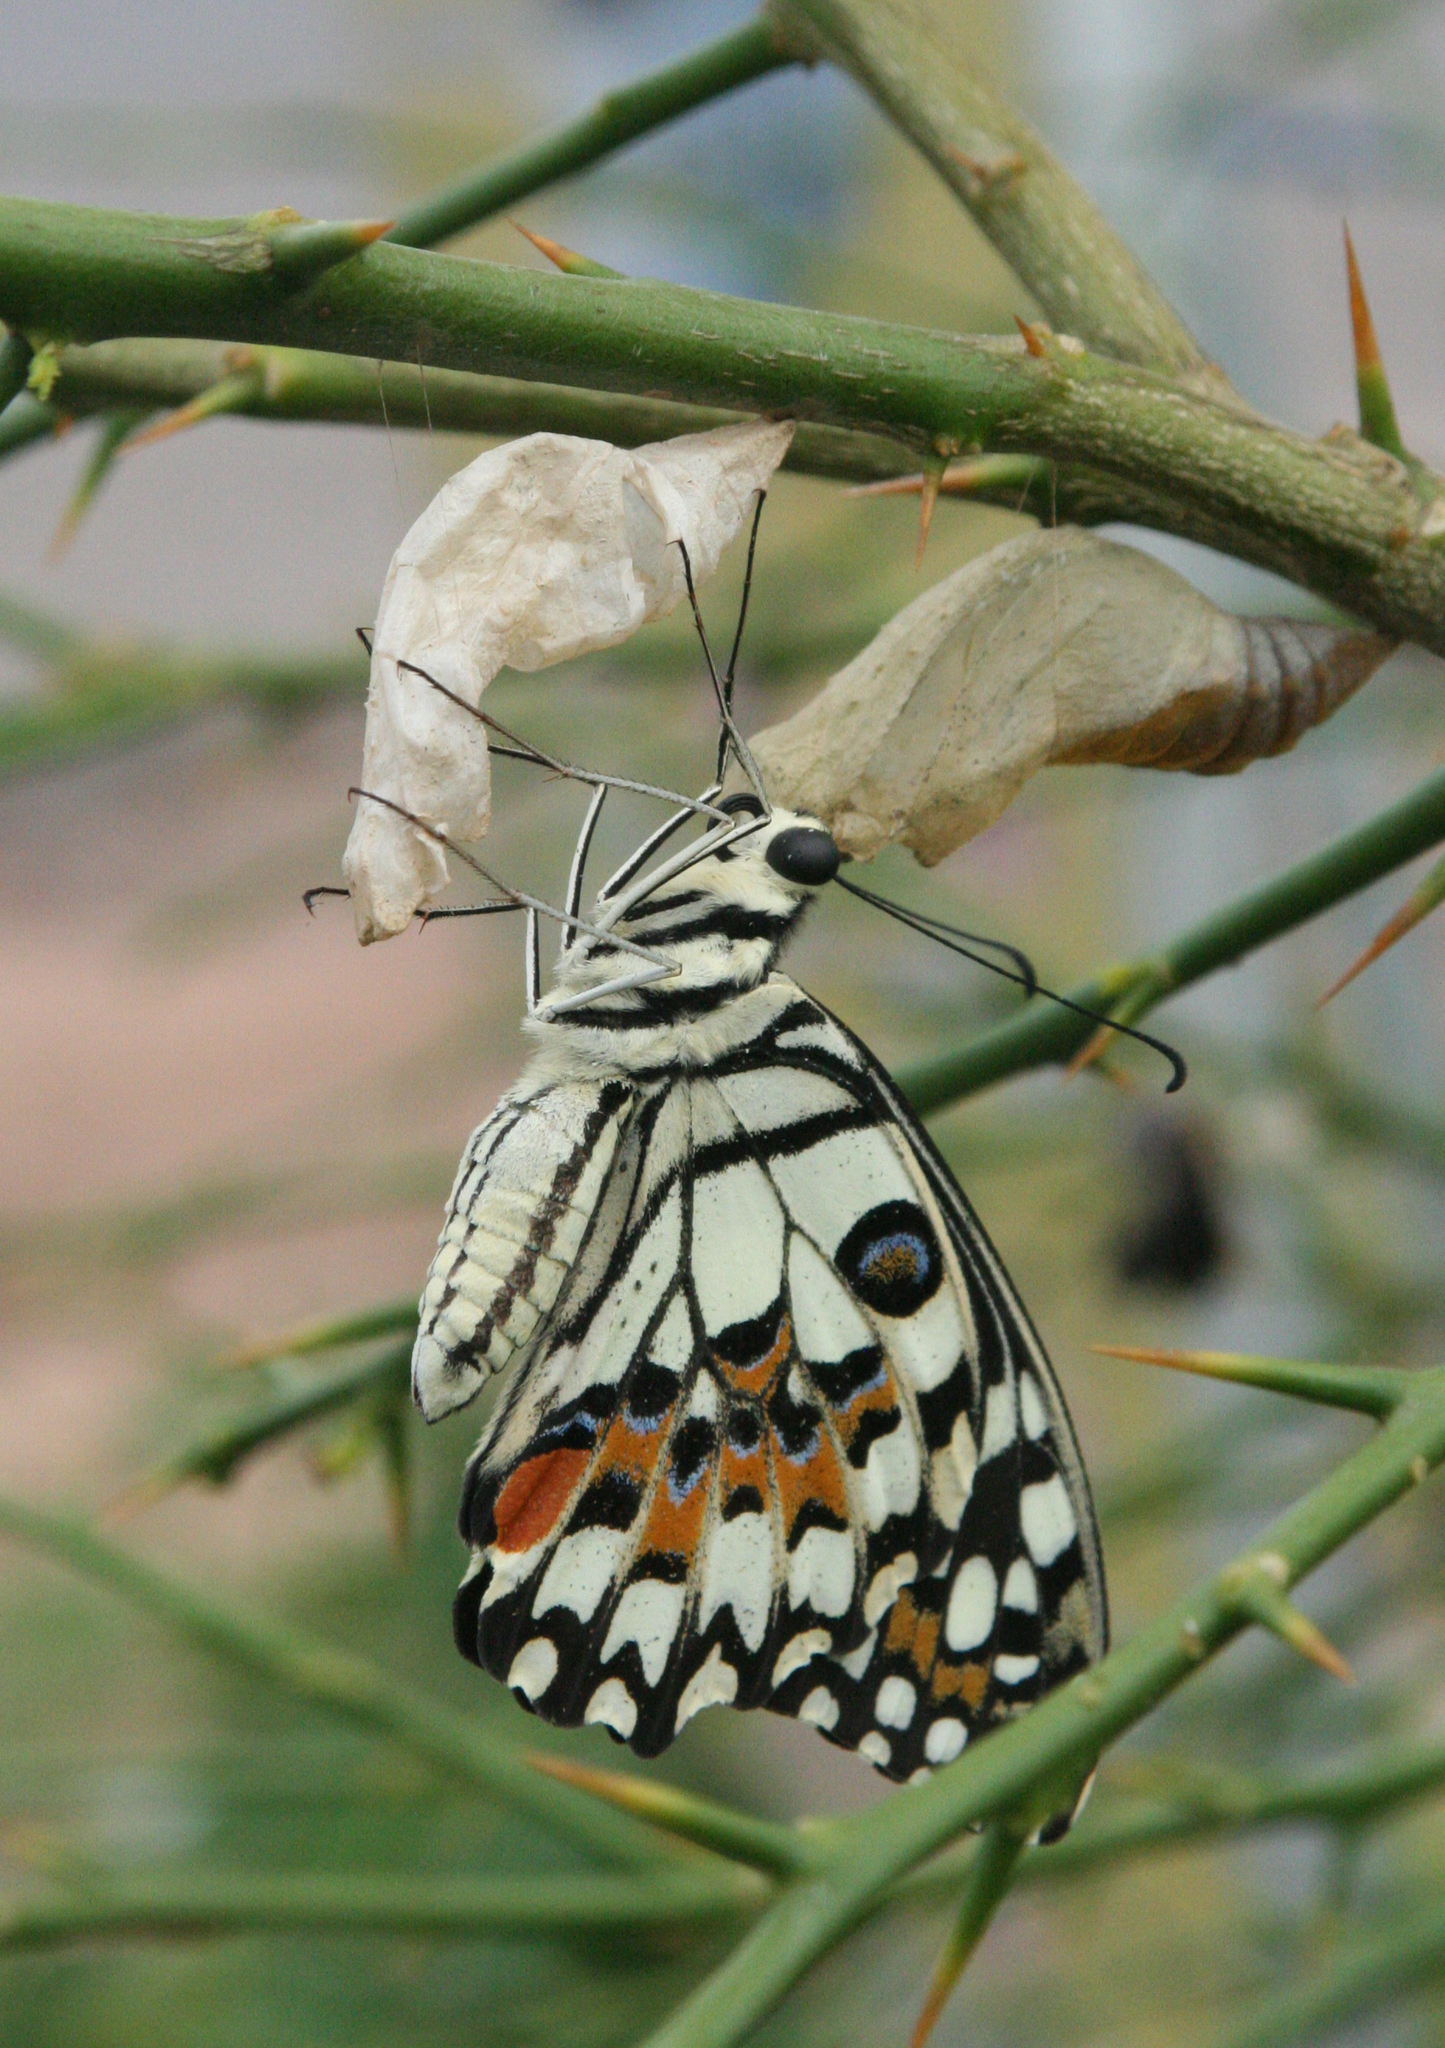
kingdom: Animalia
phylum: Arthropoda
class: Insecta
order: Lepidoptera
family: Papilionidae
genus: Papilio
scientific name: Papilio demoleus
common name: Lime butterfly
